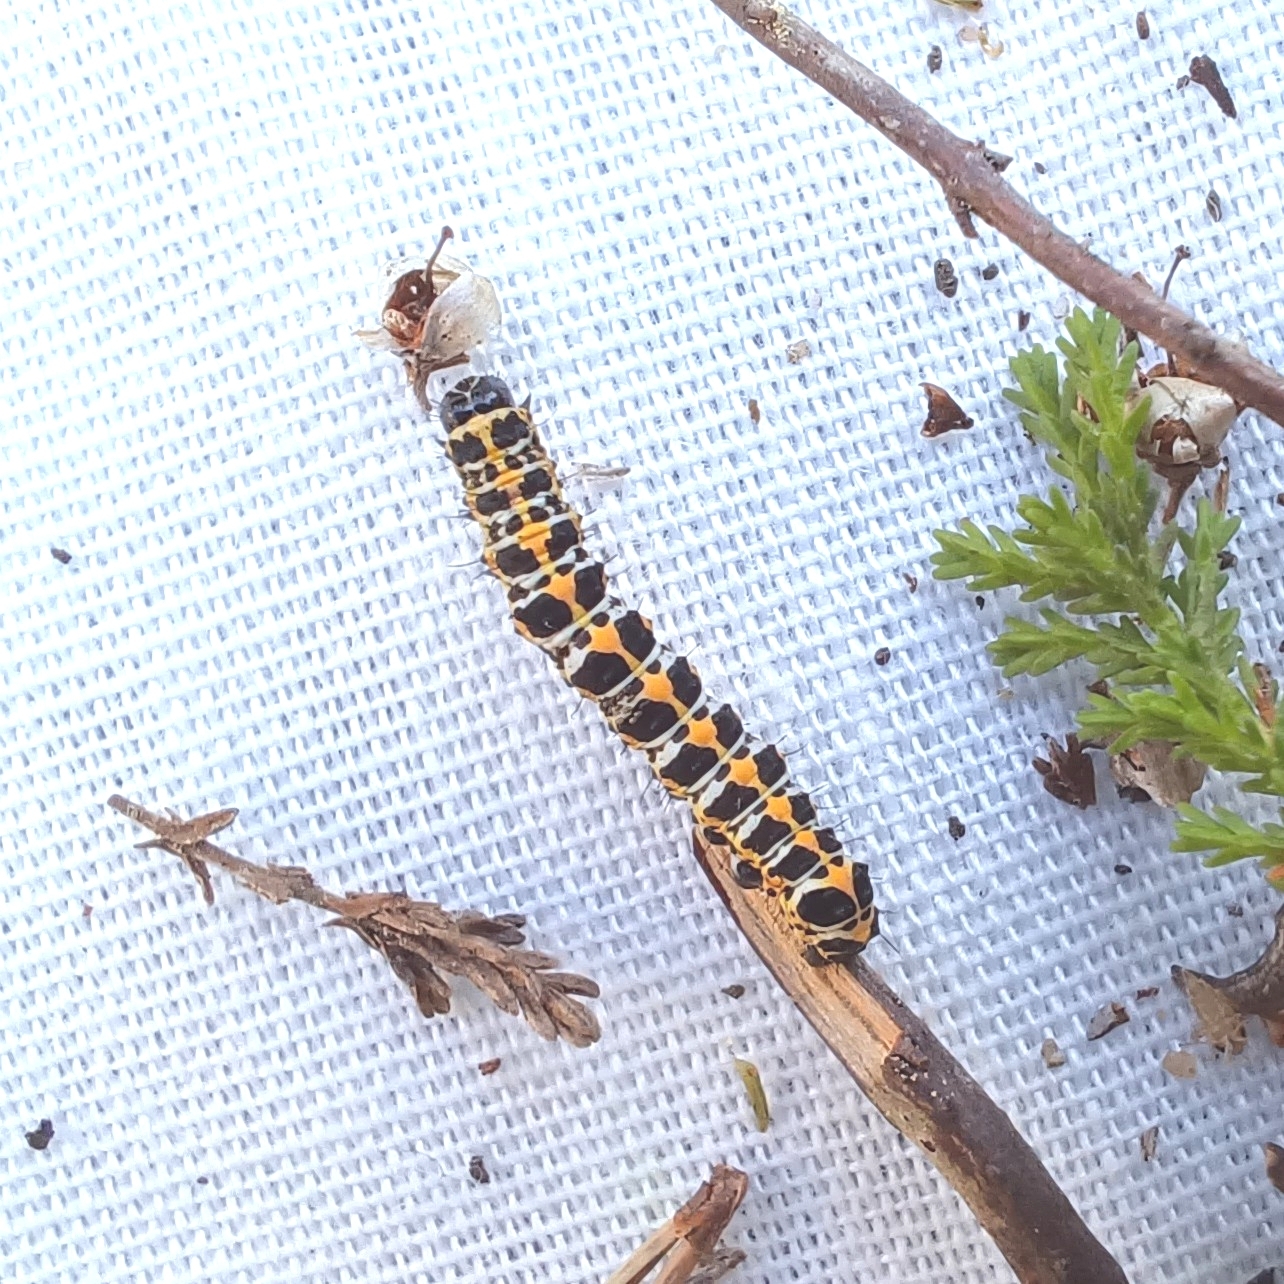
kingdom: Animalia
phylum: Arthropoda
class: Insecta
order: Lepidoptera
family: Noctuidae
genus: Cucullia
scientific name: Cucullia lactucae
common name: Lettuce shark
